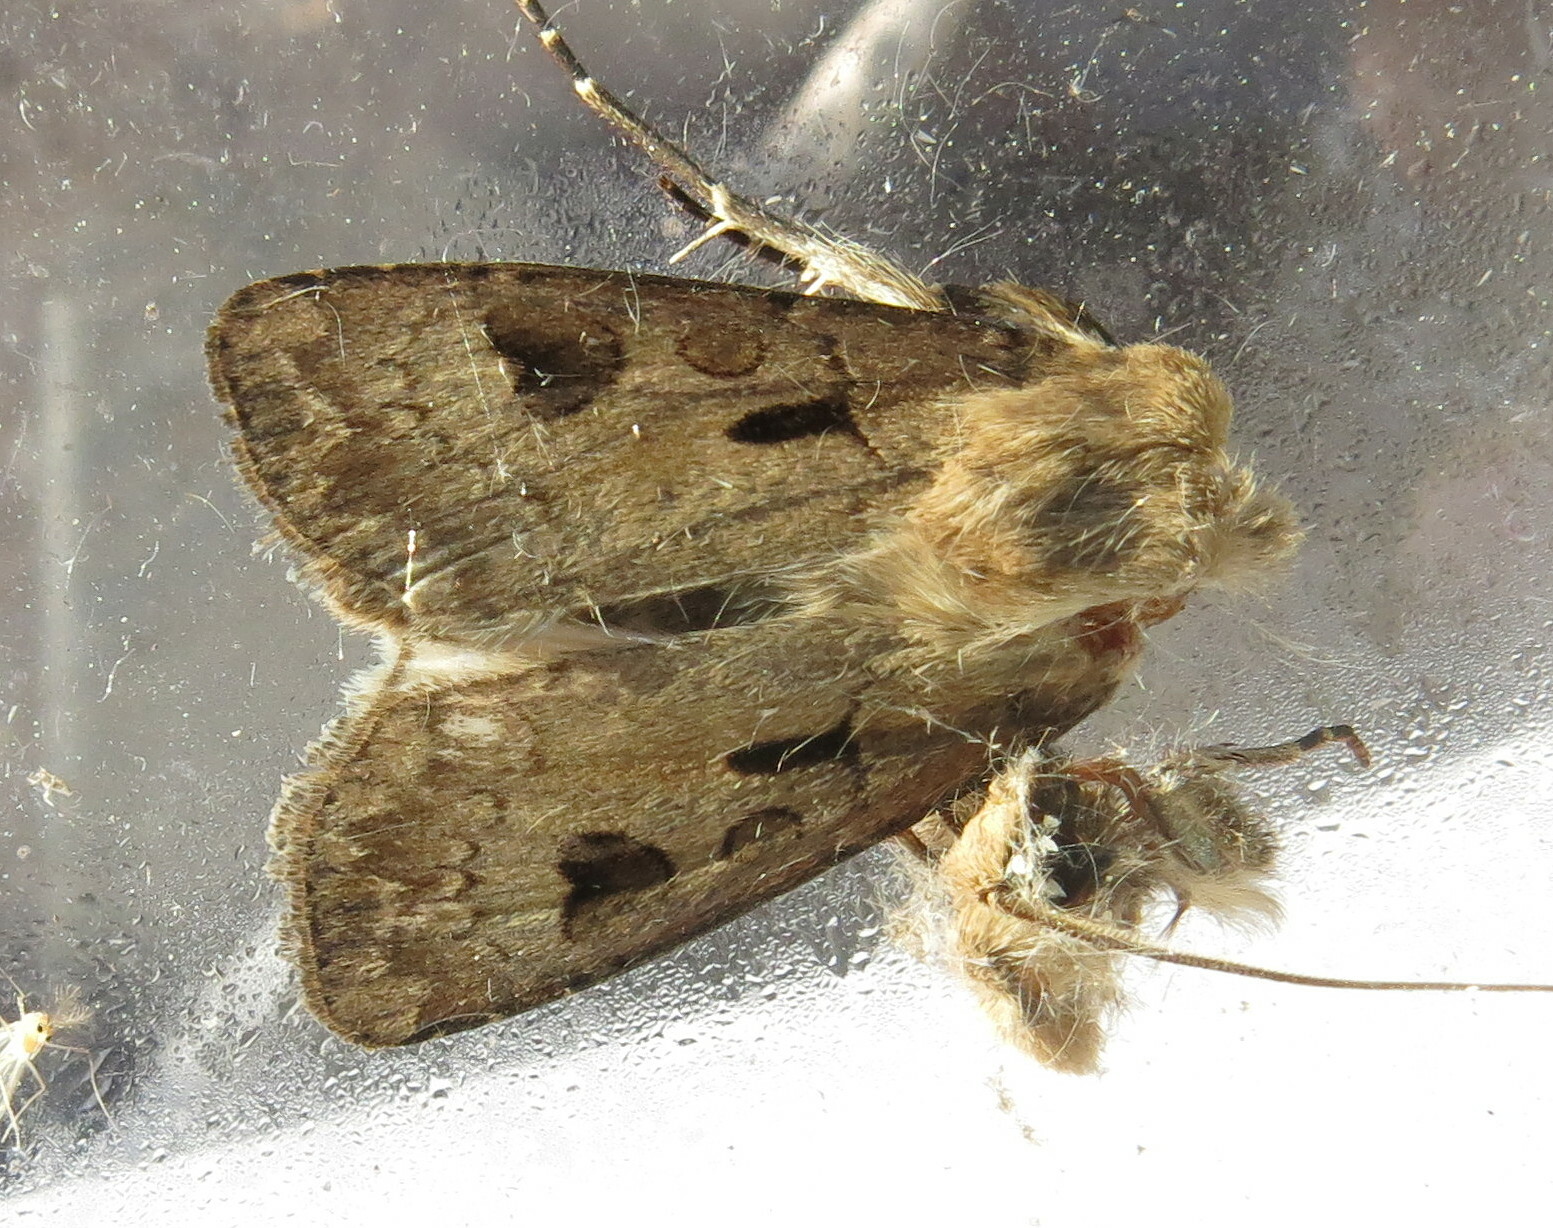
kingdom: Animalia
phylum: Arthropoda
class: Insecta
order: Lepidoptera
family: Noctuidae
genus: Agrotis
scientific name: Agrotis exclamationis
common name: Heart and dart
